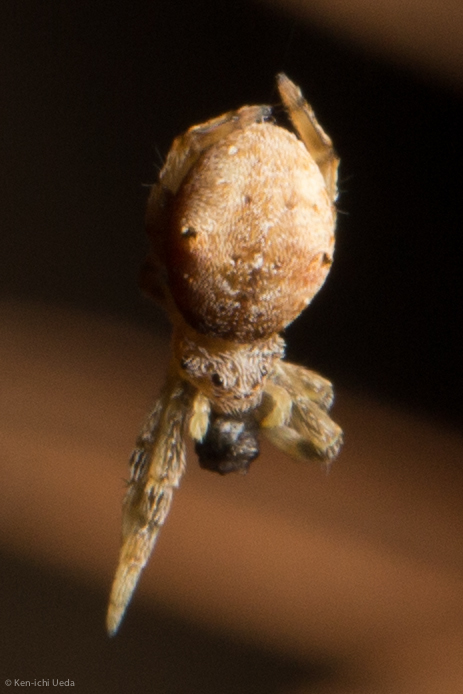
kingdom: Animalia
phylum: Arthropoda
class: Arachnida
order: Araneae
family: Uloboridae
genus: Hyptiotes
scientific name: Hyptiotes gertschi
